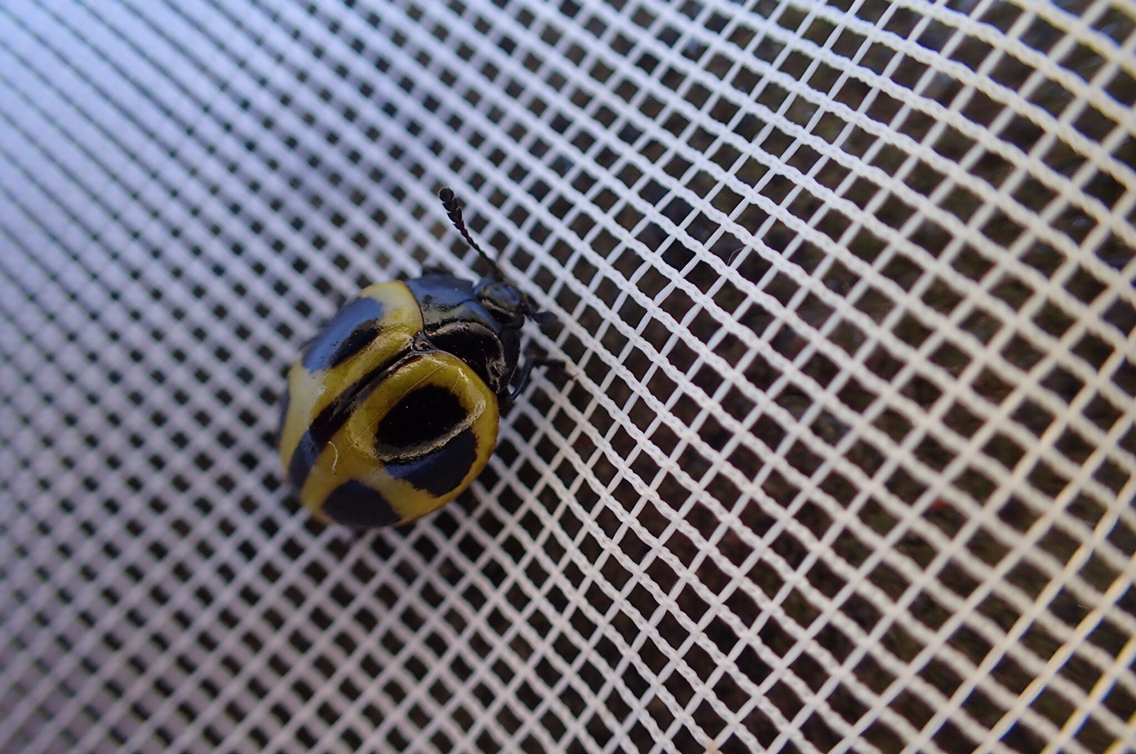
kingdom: Animalia
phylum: Arthropoda
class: Insecta
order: Coleoptera
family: Erotylidae
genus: Aegithus
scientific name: Aegithus
